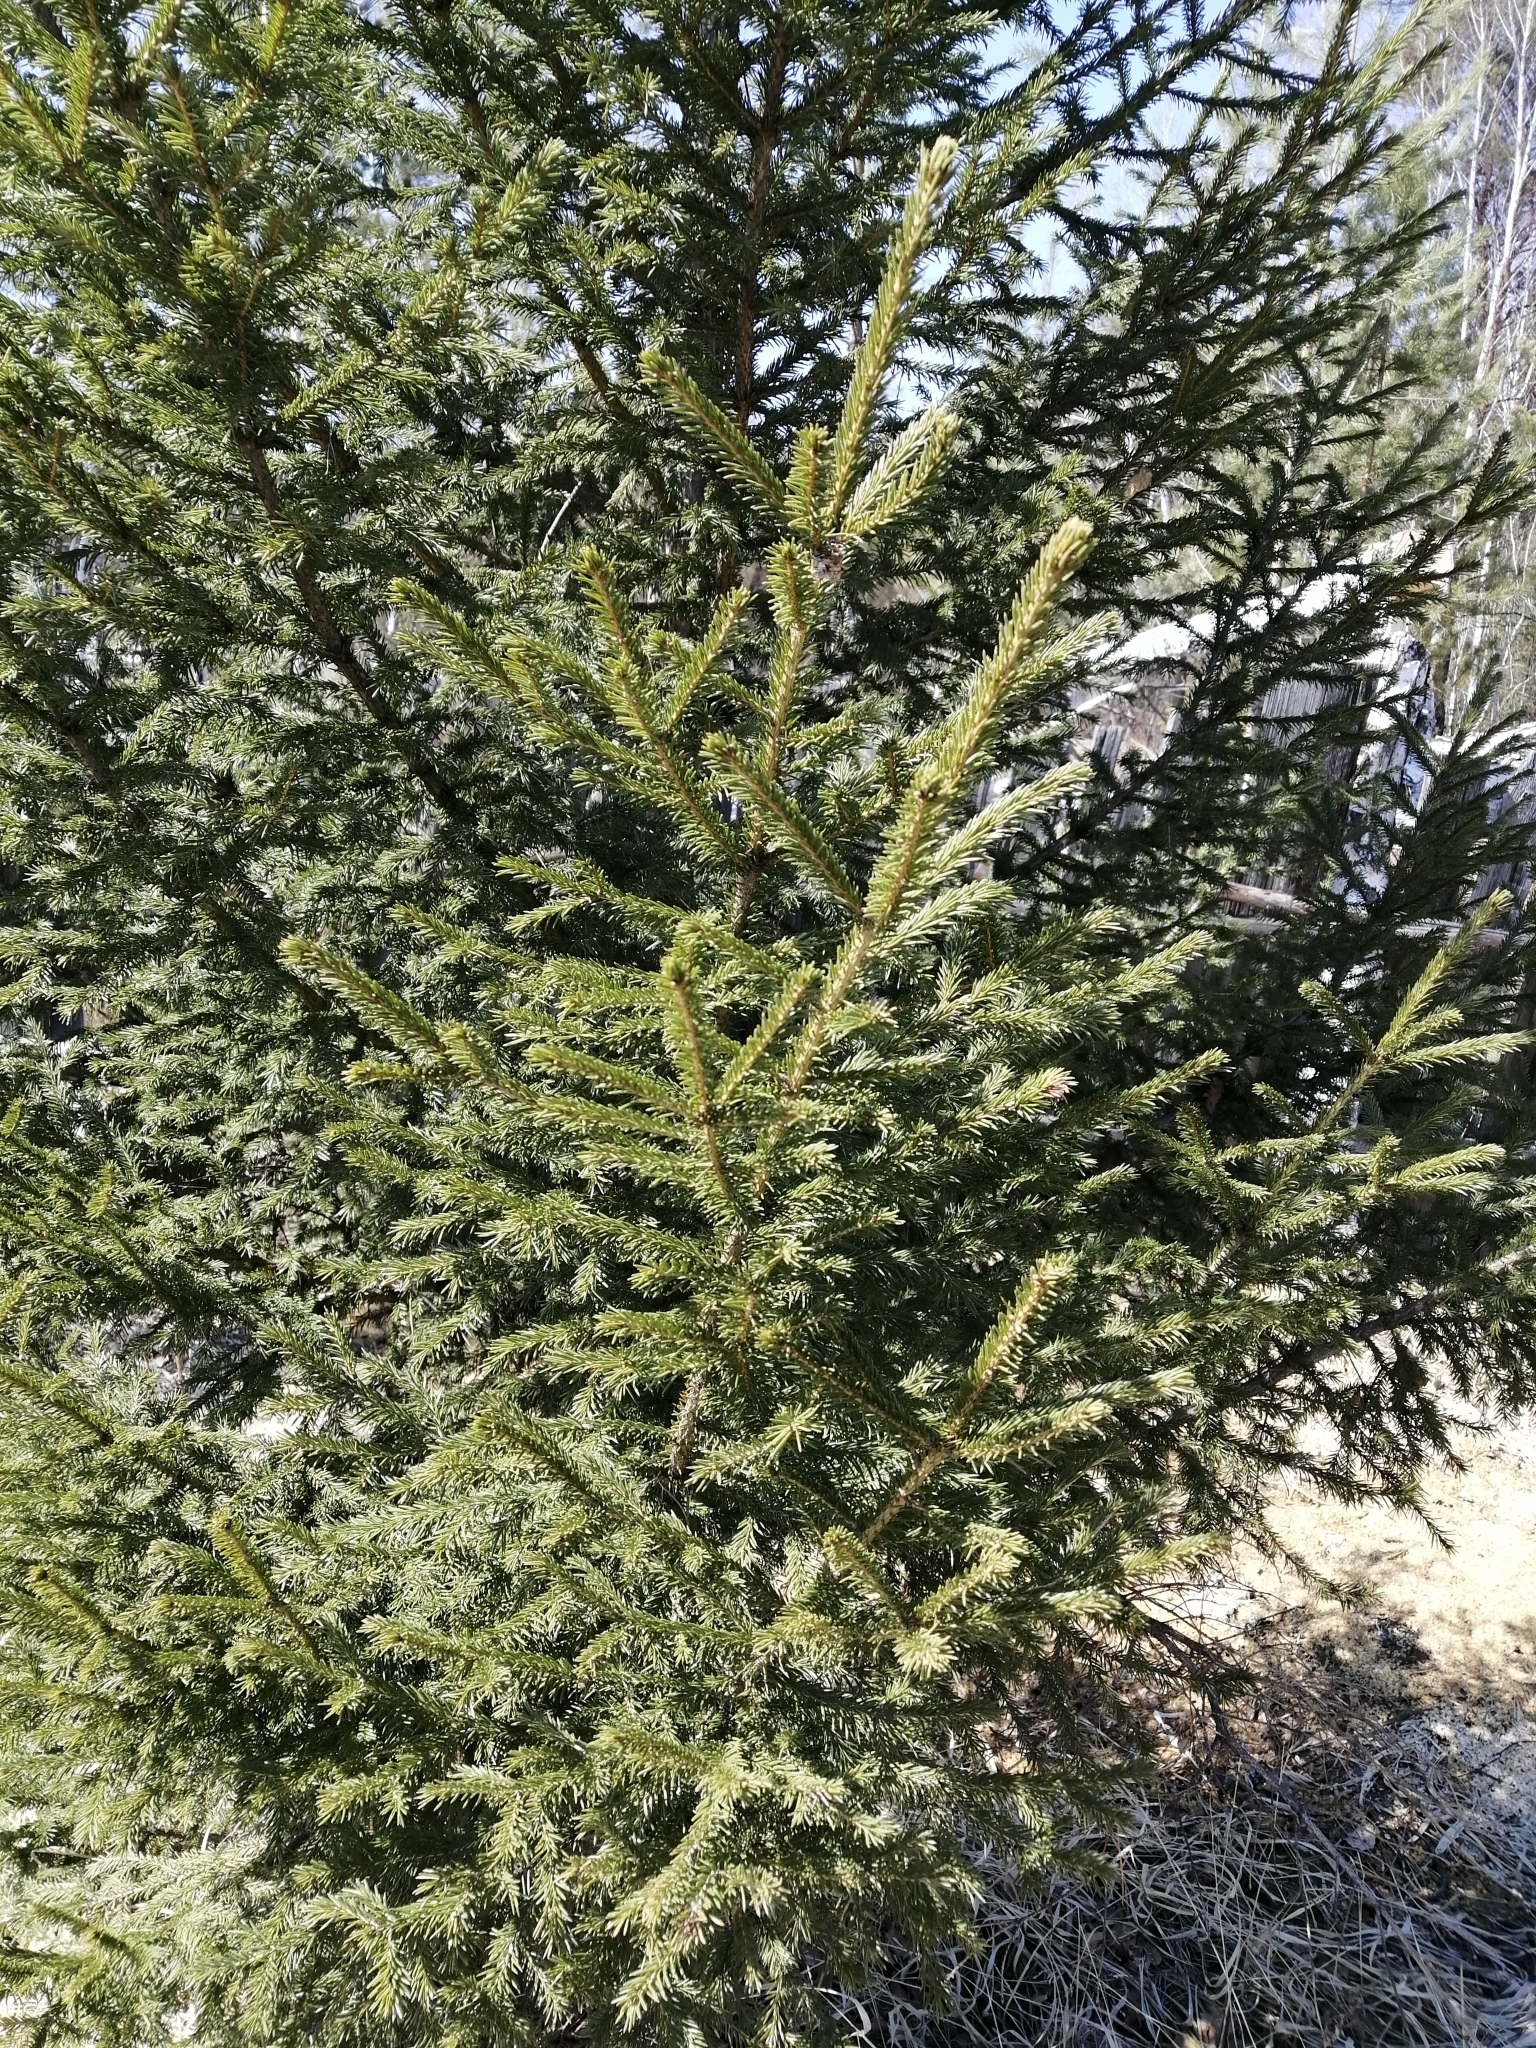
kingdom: Plantae
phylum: Tracheophyta
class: Pinopsida
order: Pinales
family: Pinaceae
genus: Picea
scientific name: Picea obovata
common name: Siberian spruce
